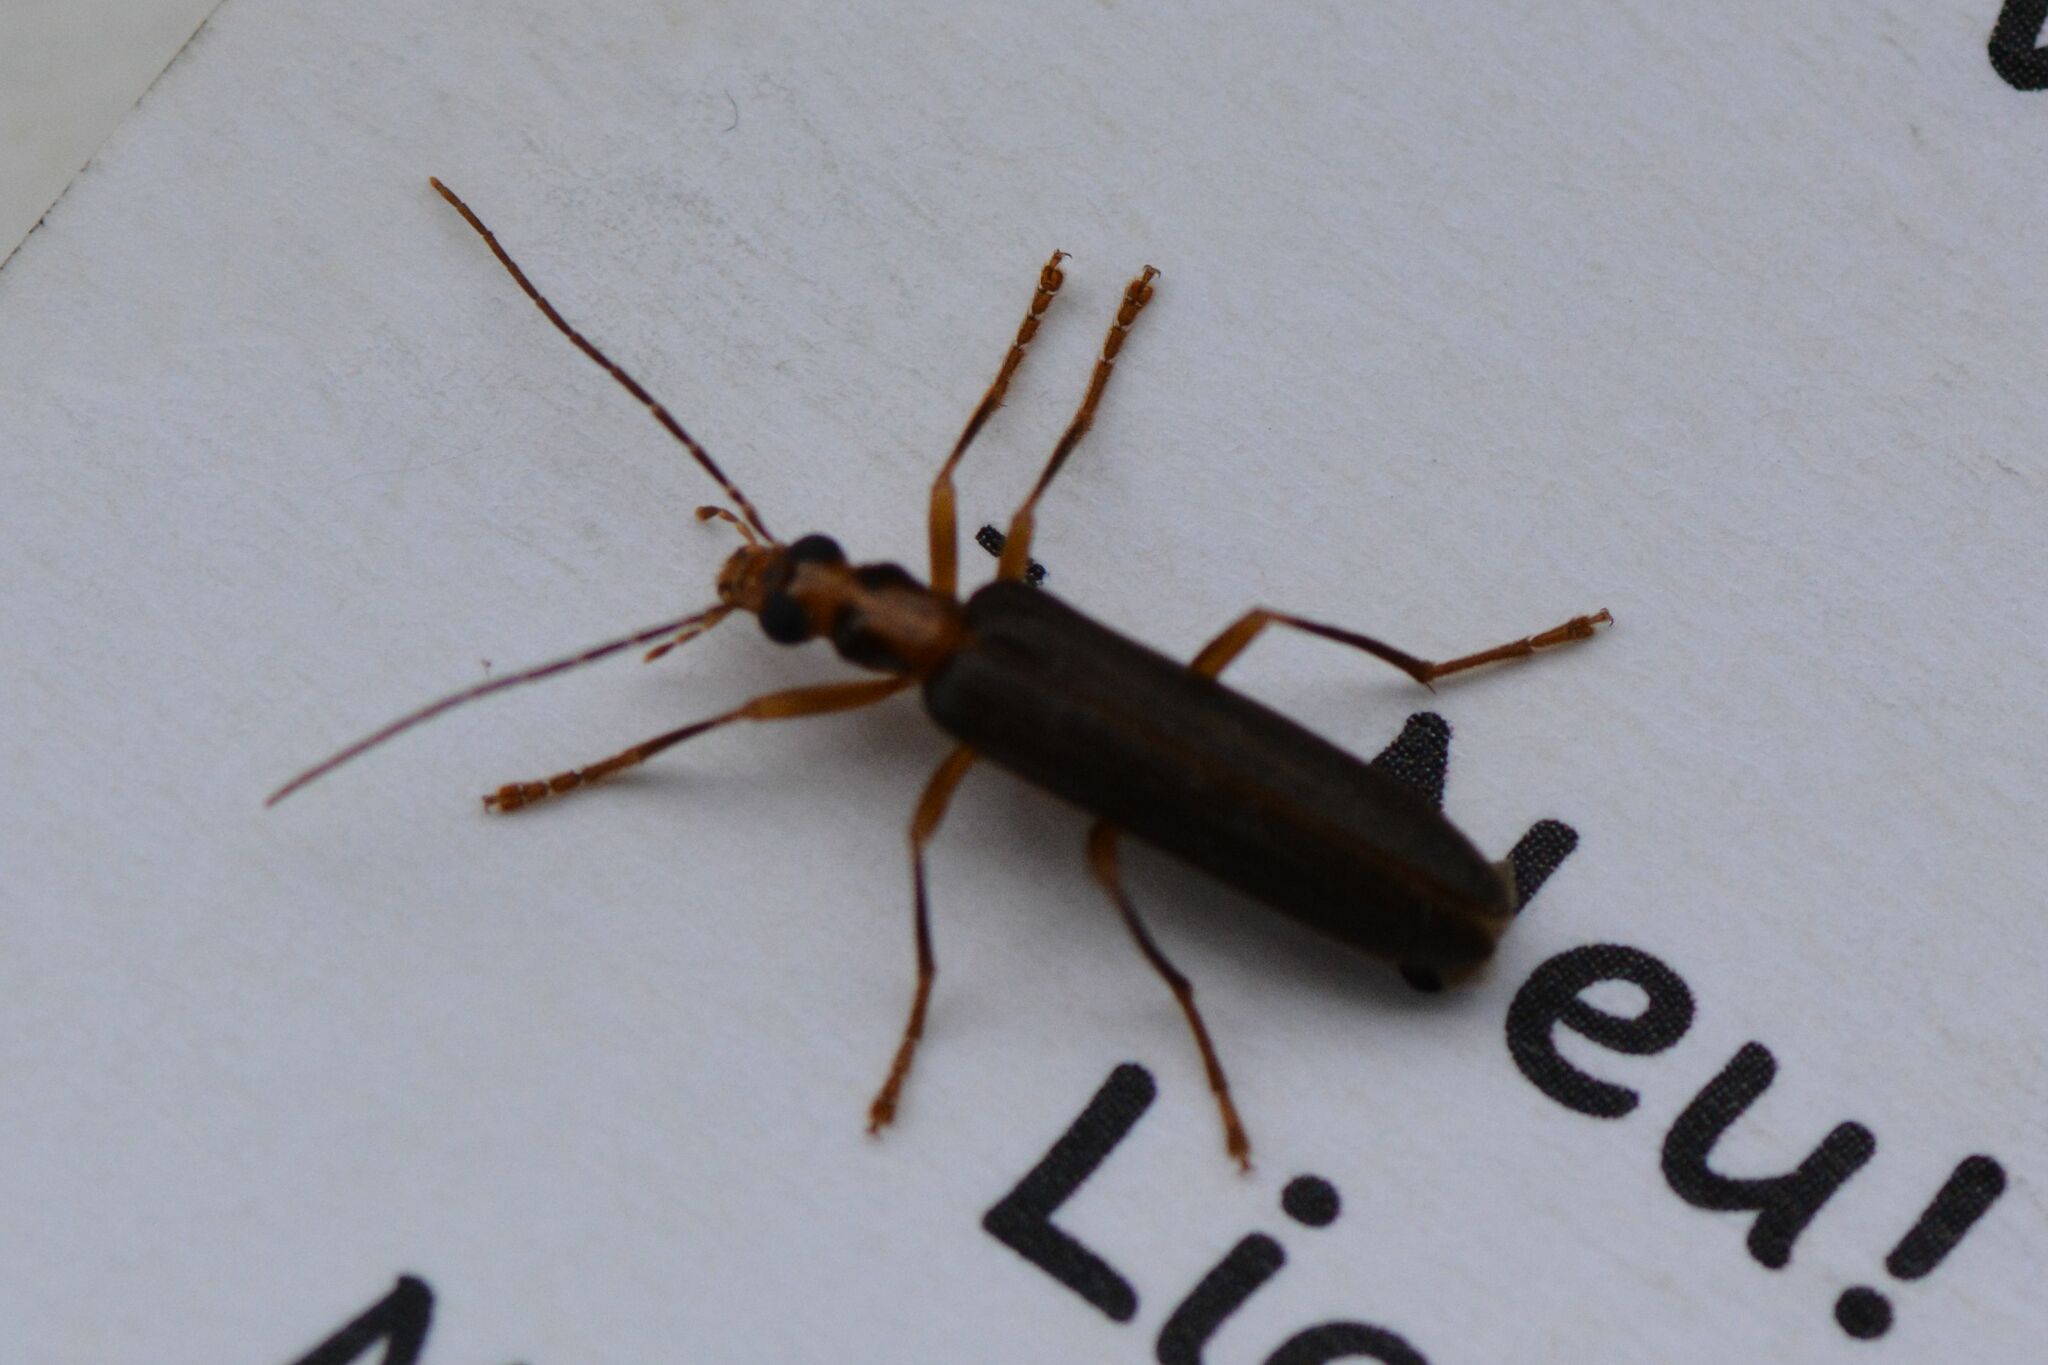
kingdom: Animalia
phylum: Arthropoda
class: Insecta
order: Coleoptera
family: Oedemeridae
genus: Nacerdes
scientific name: Nacerdes carniolica
